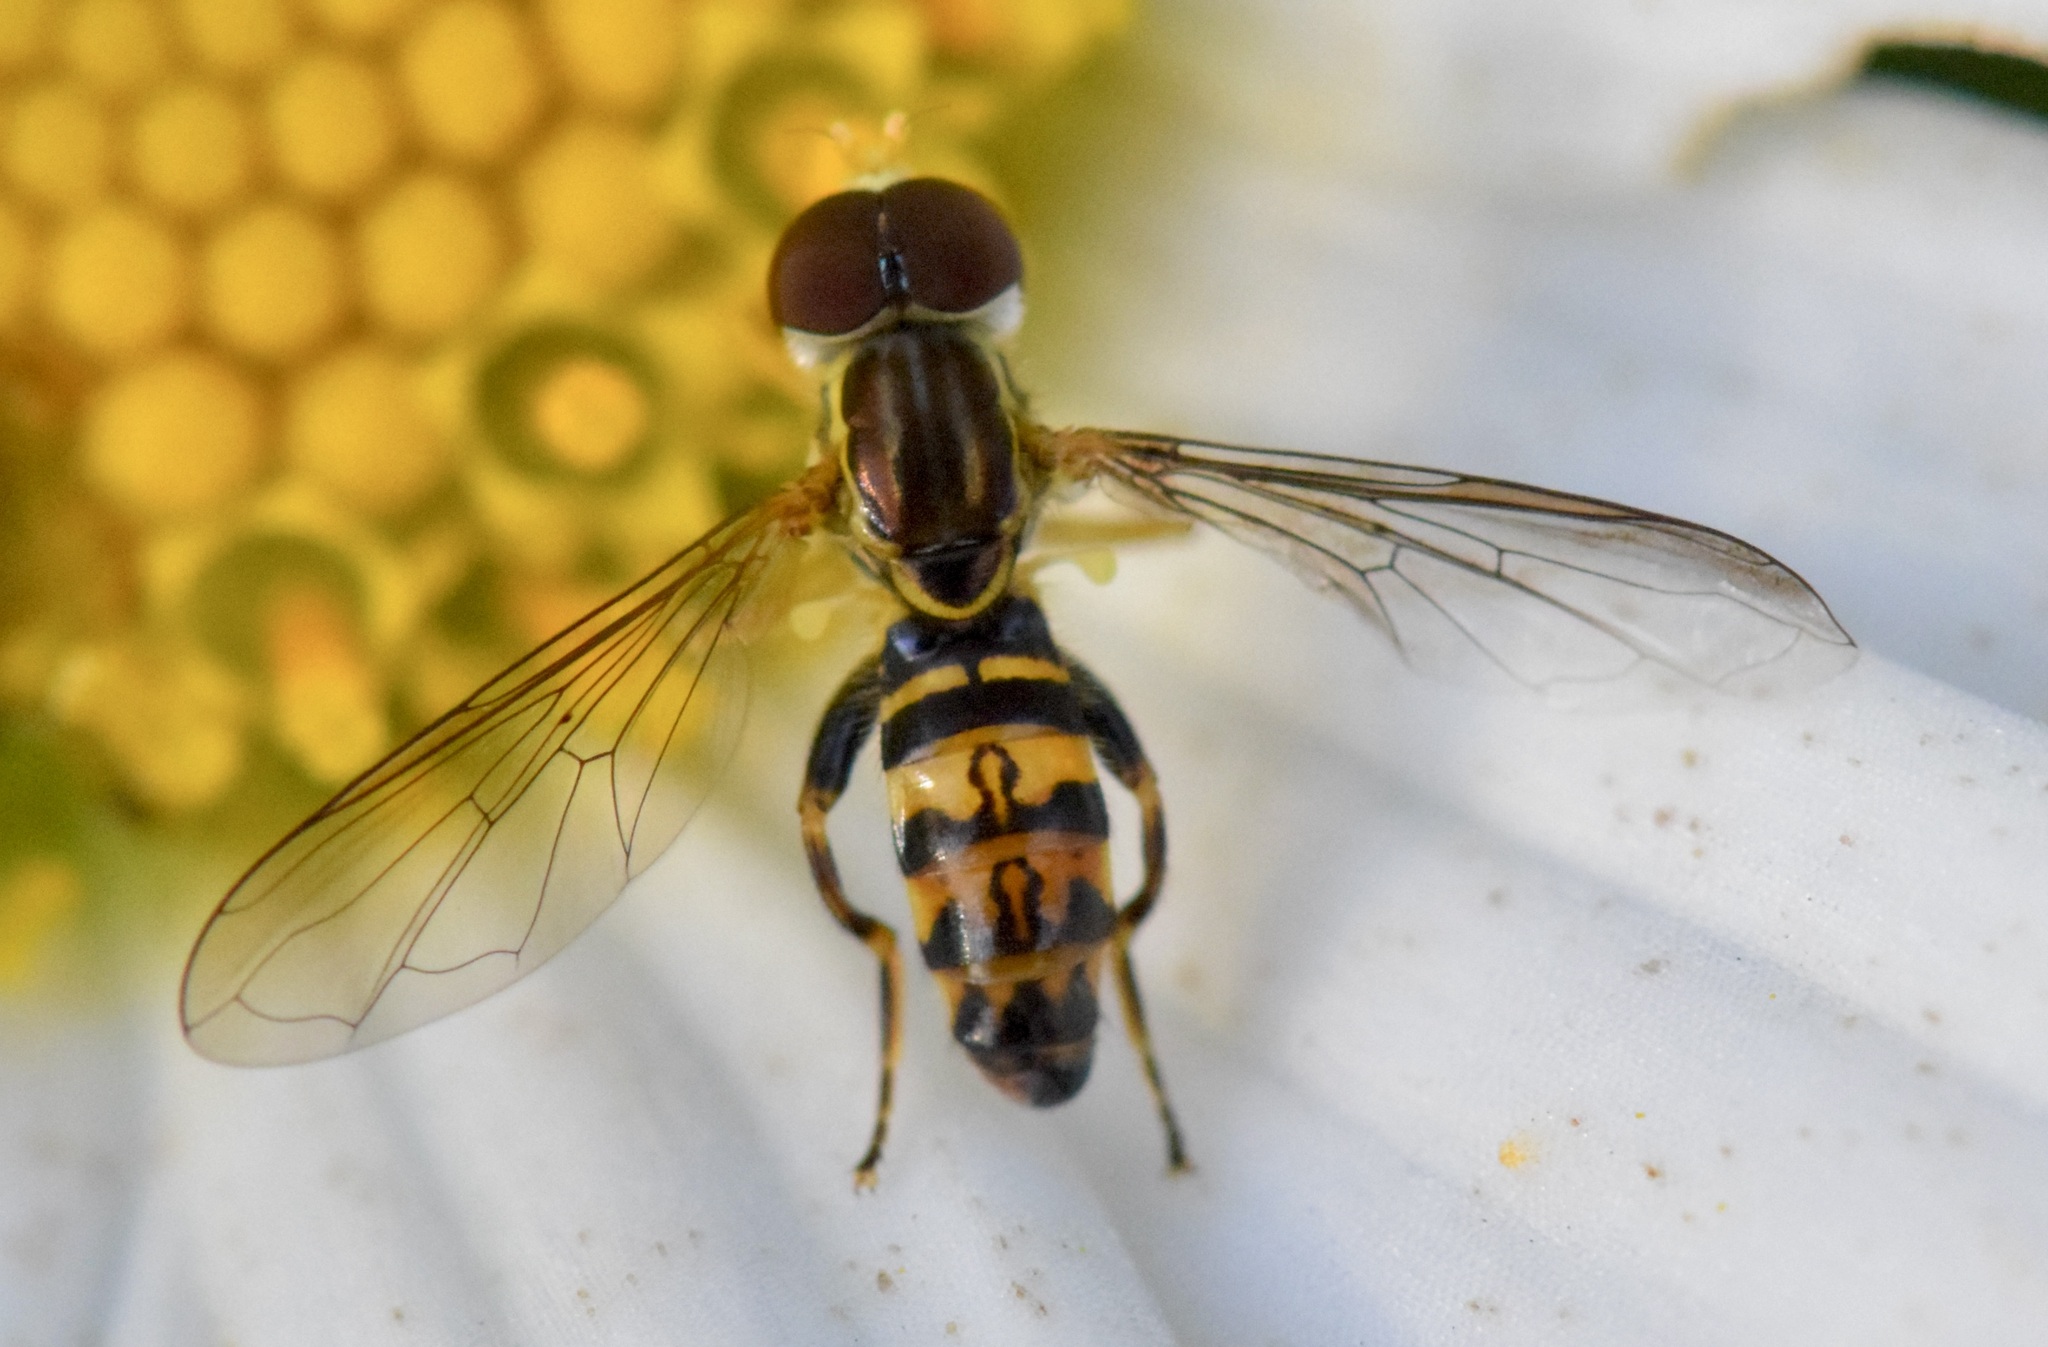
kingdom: Animalia
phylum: Arthropoda
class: Insecta
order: Diptera
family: Syrphidae
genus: Toxomerus
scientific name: Toxomerus geminatus
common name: Eastern calligrapher
